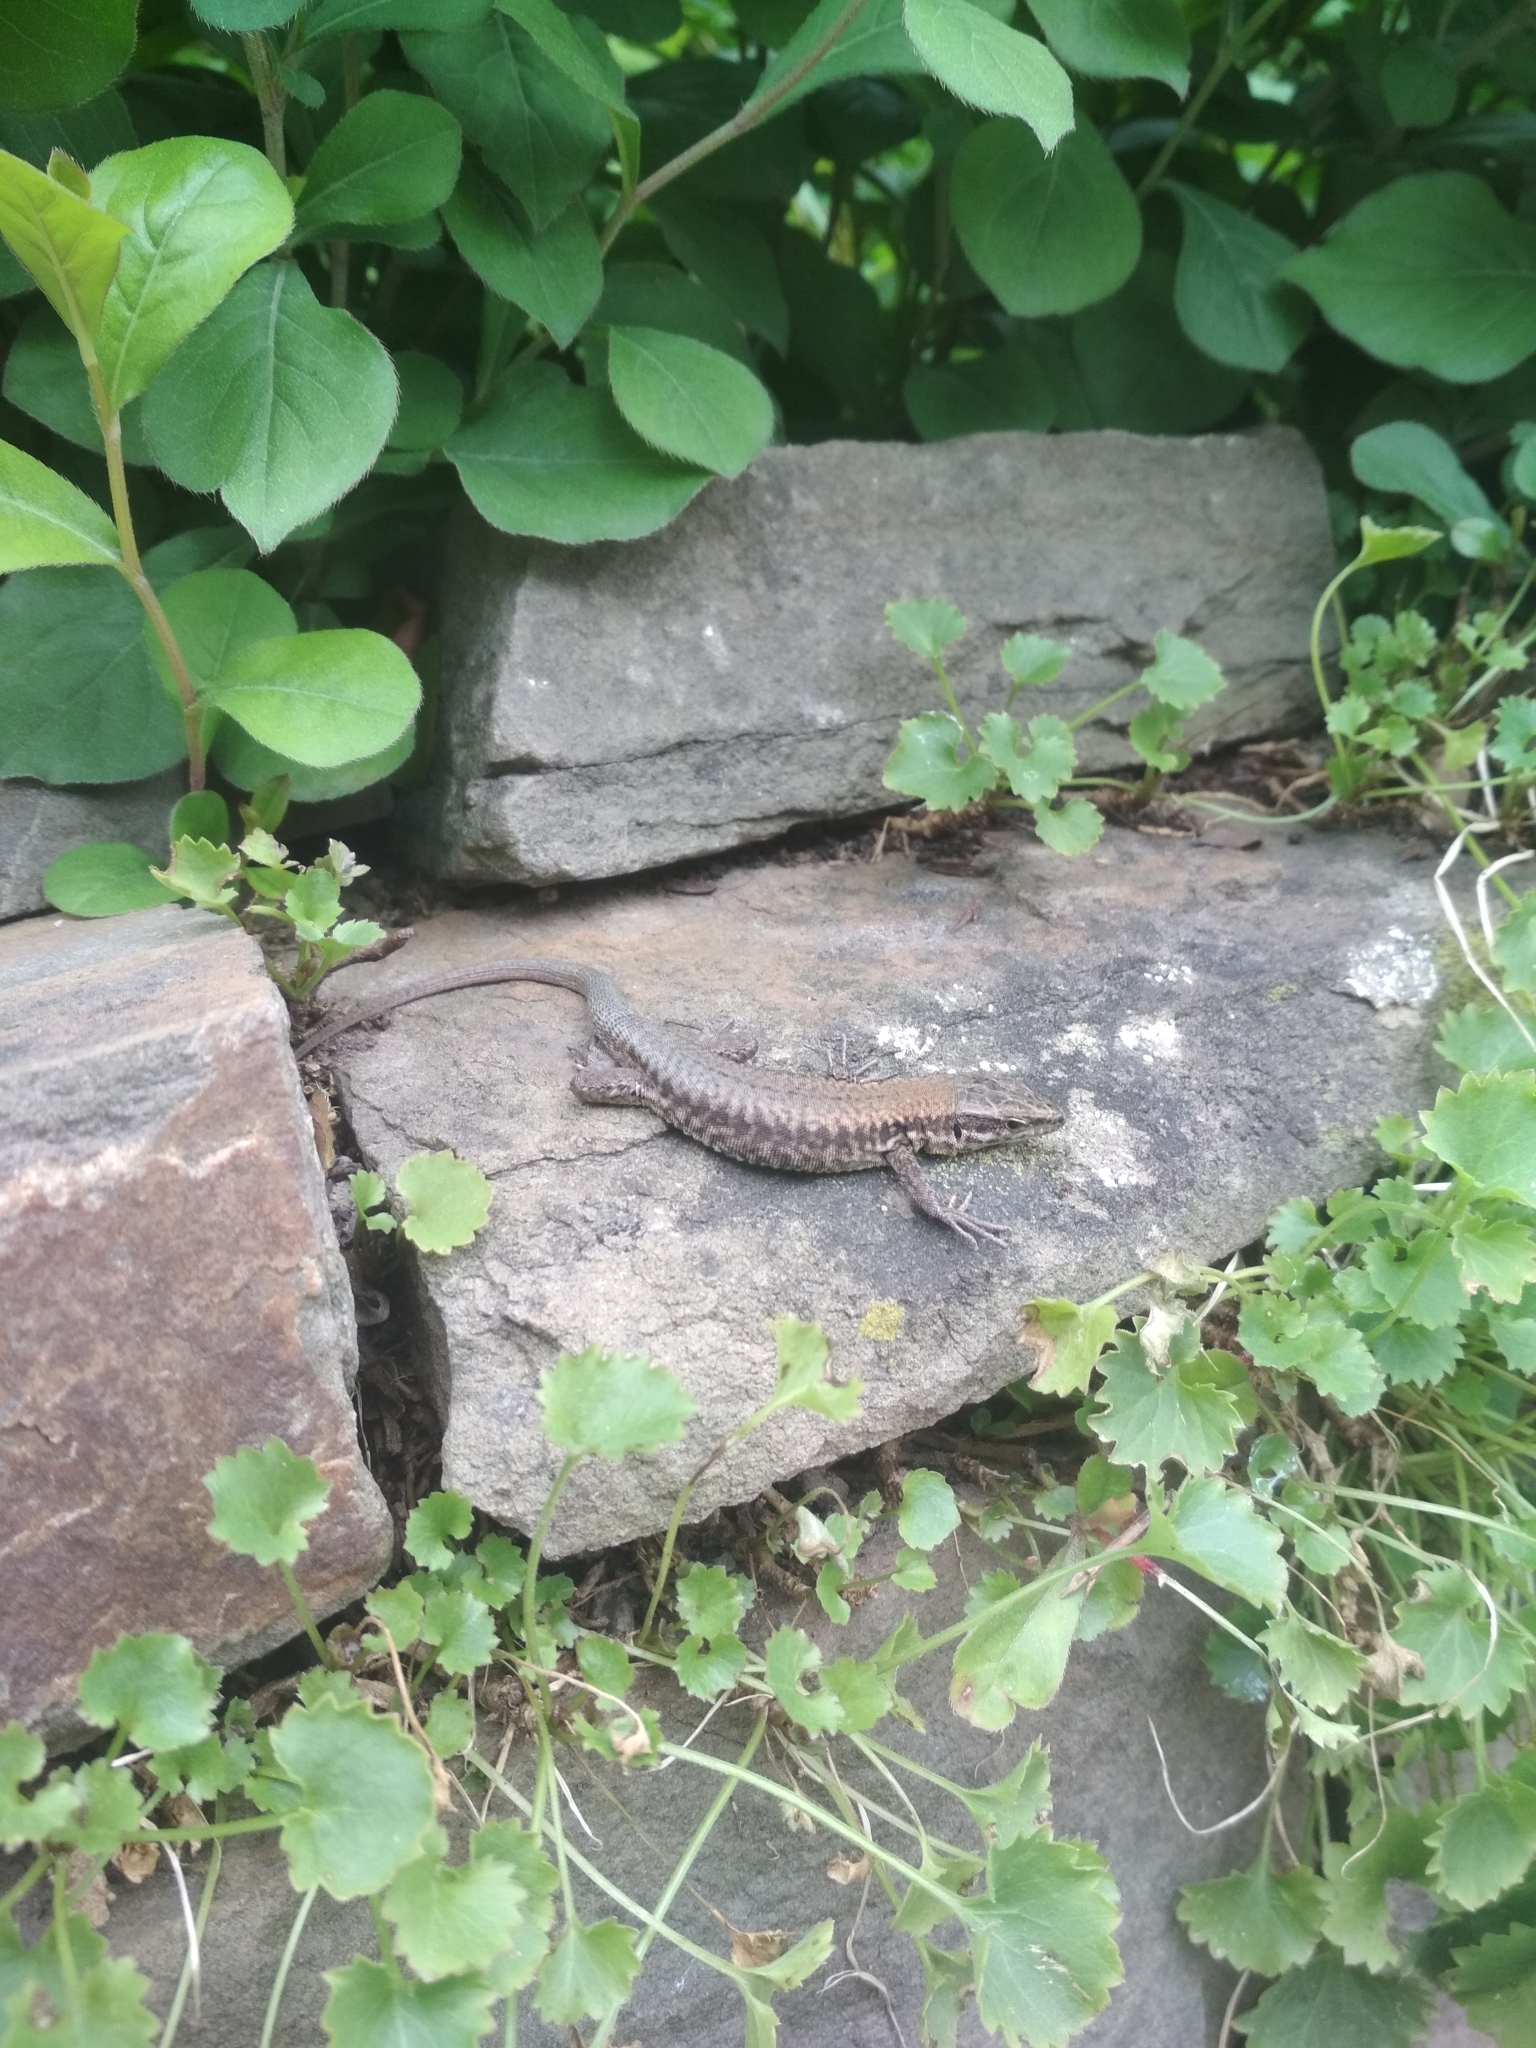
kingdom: Animalia
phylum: Chordata
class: Squamata
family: Lacertidae
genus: Podarcis
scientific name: Podarcis muralis
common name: Common wall lizard
